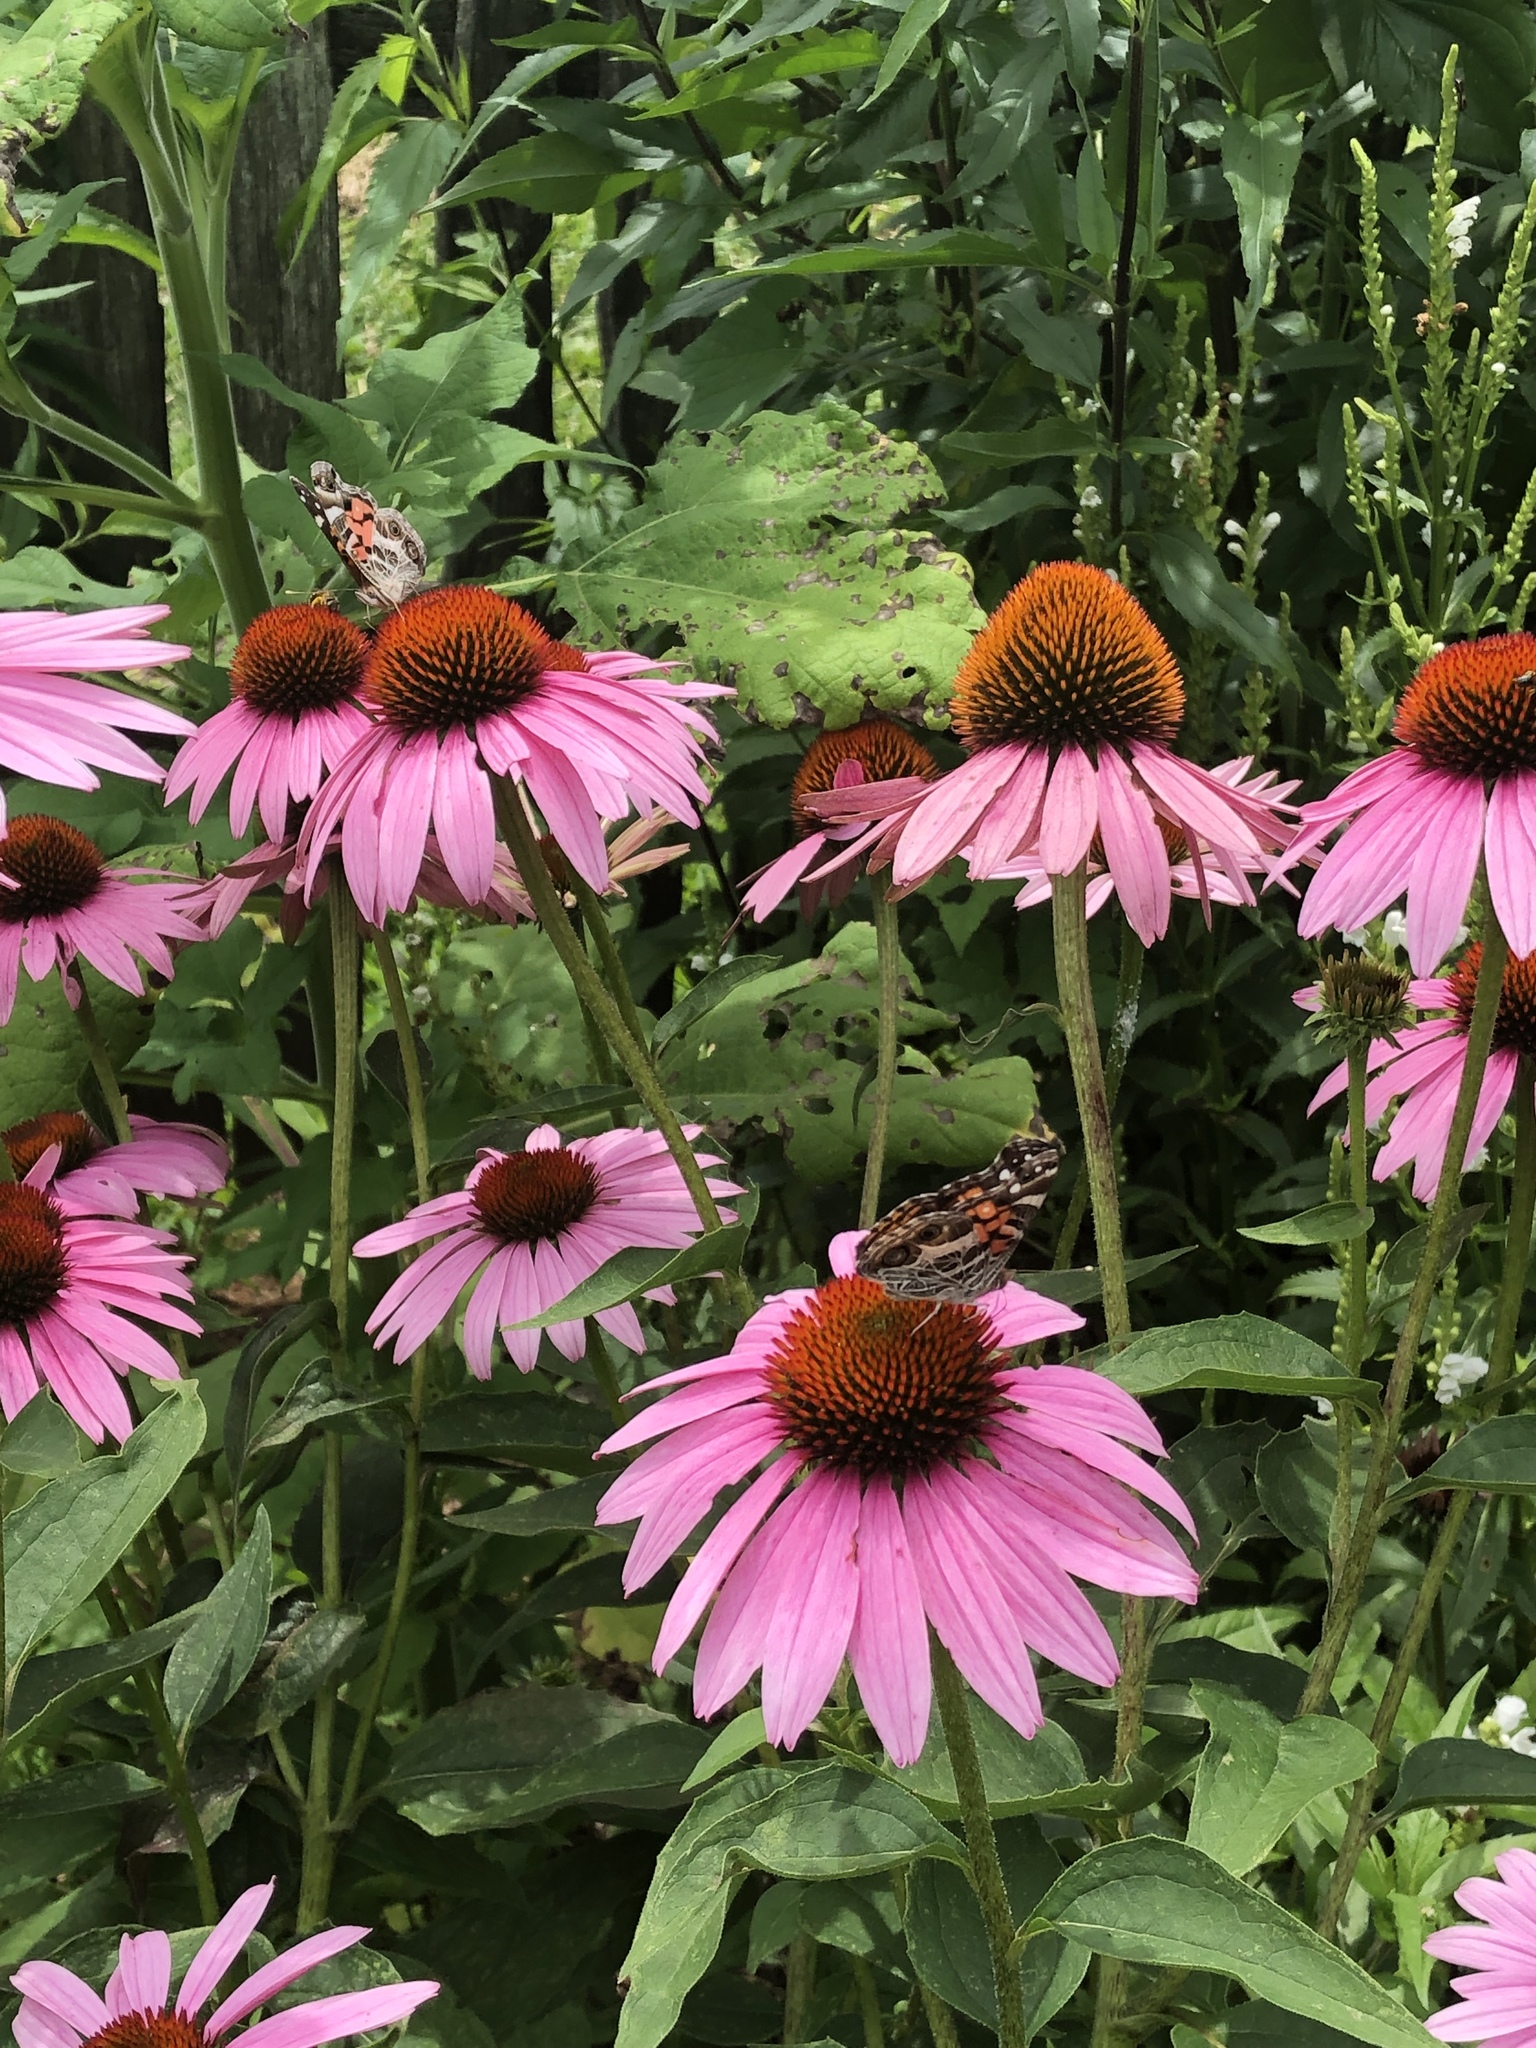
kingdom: Animalia
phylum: Arthropoda
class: Insecta
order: Lepidoptera
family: Nymphalidae
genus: Vanessa
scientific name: Vanessa virginiensis
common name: American lady
